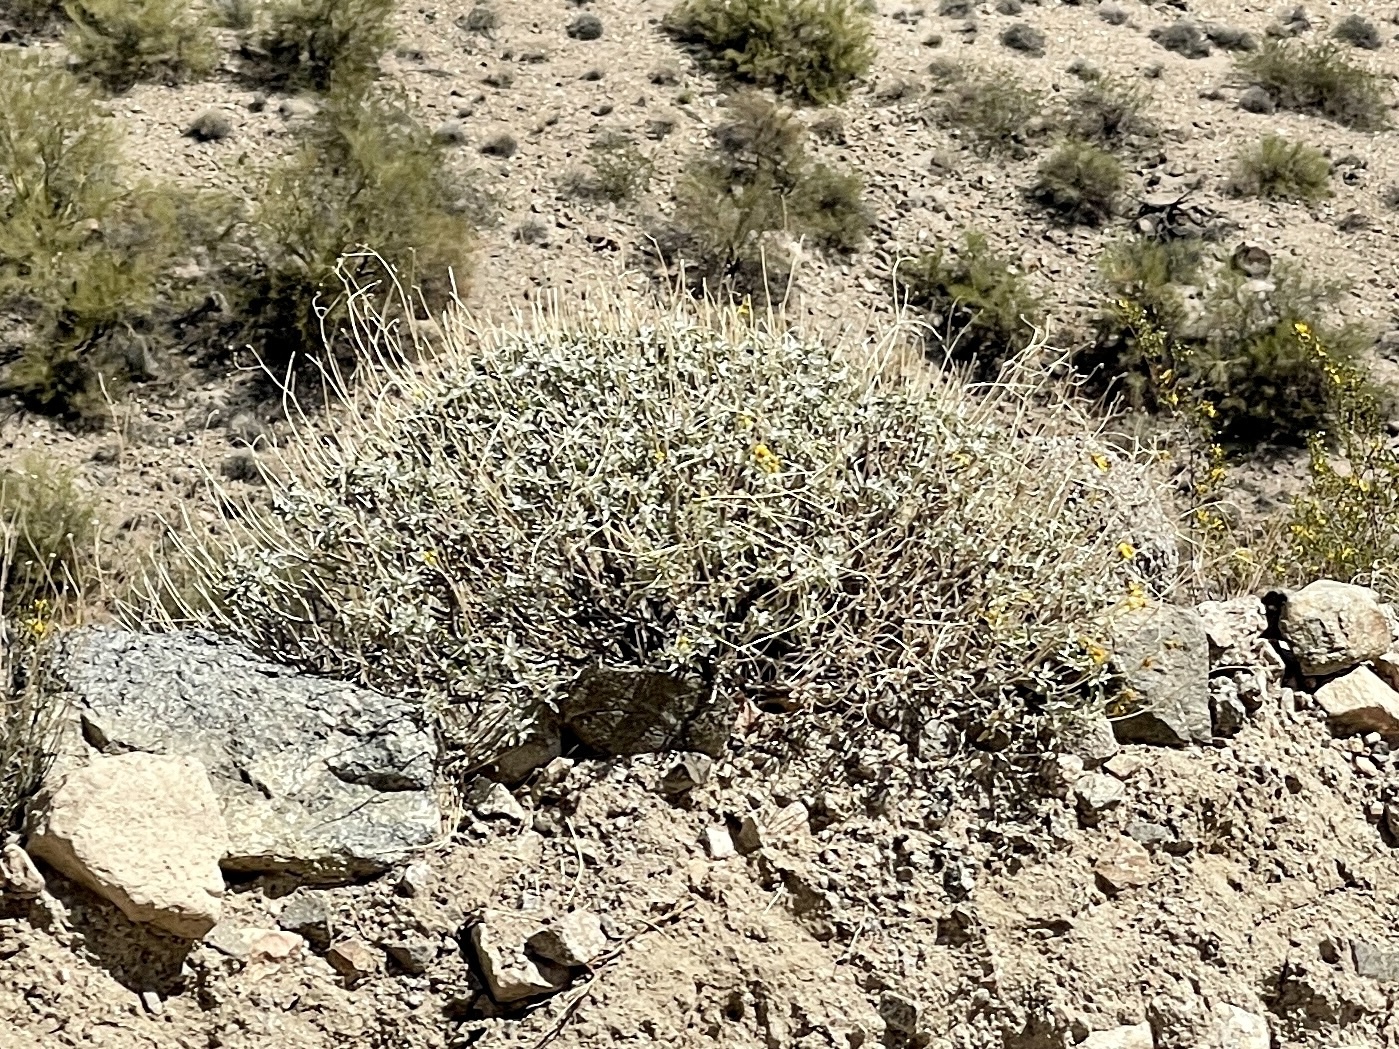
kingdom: Plantae
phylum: Tracheophyta
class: Magnoliopsida
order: Asterales
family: Asteraceae
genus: Encelia
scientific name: Encelia farinosa
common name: Brittlebush
